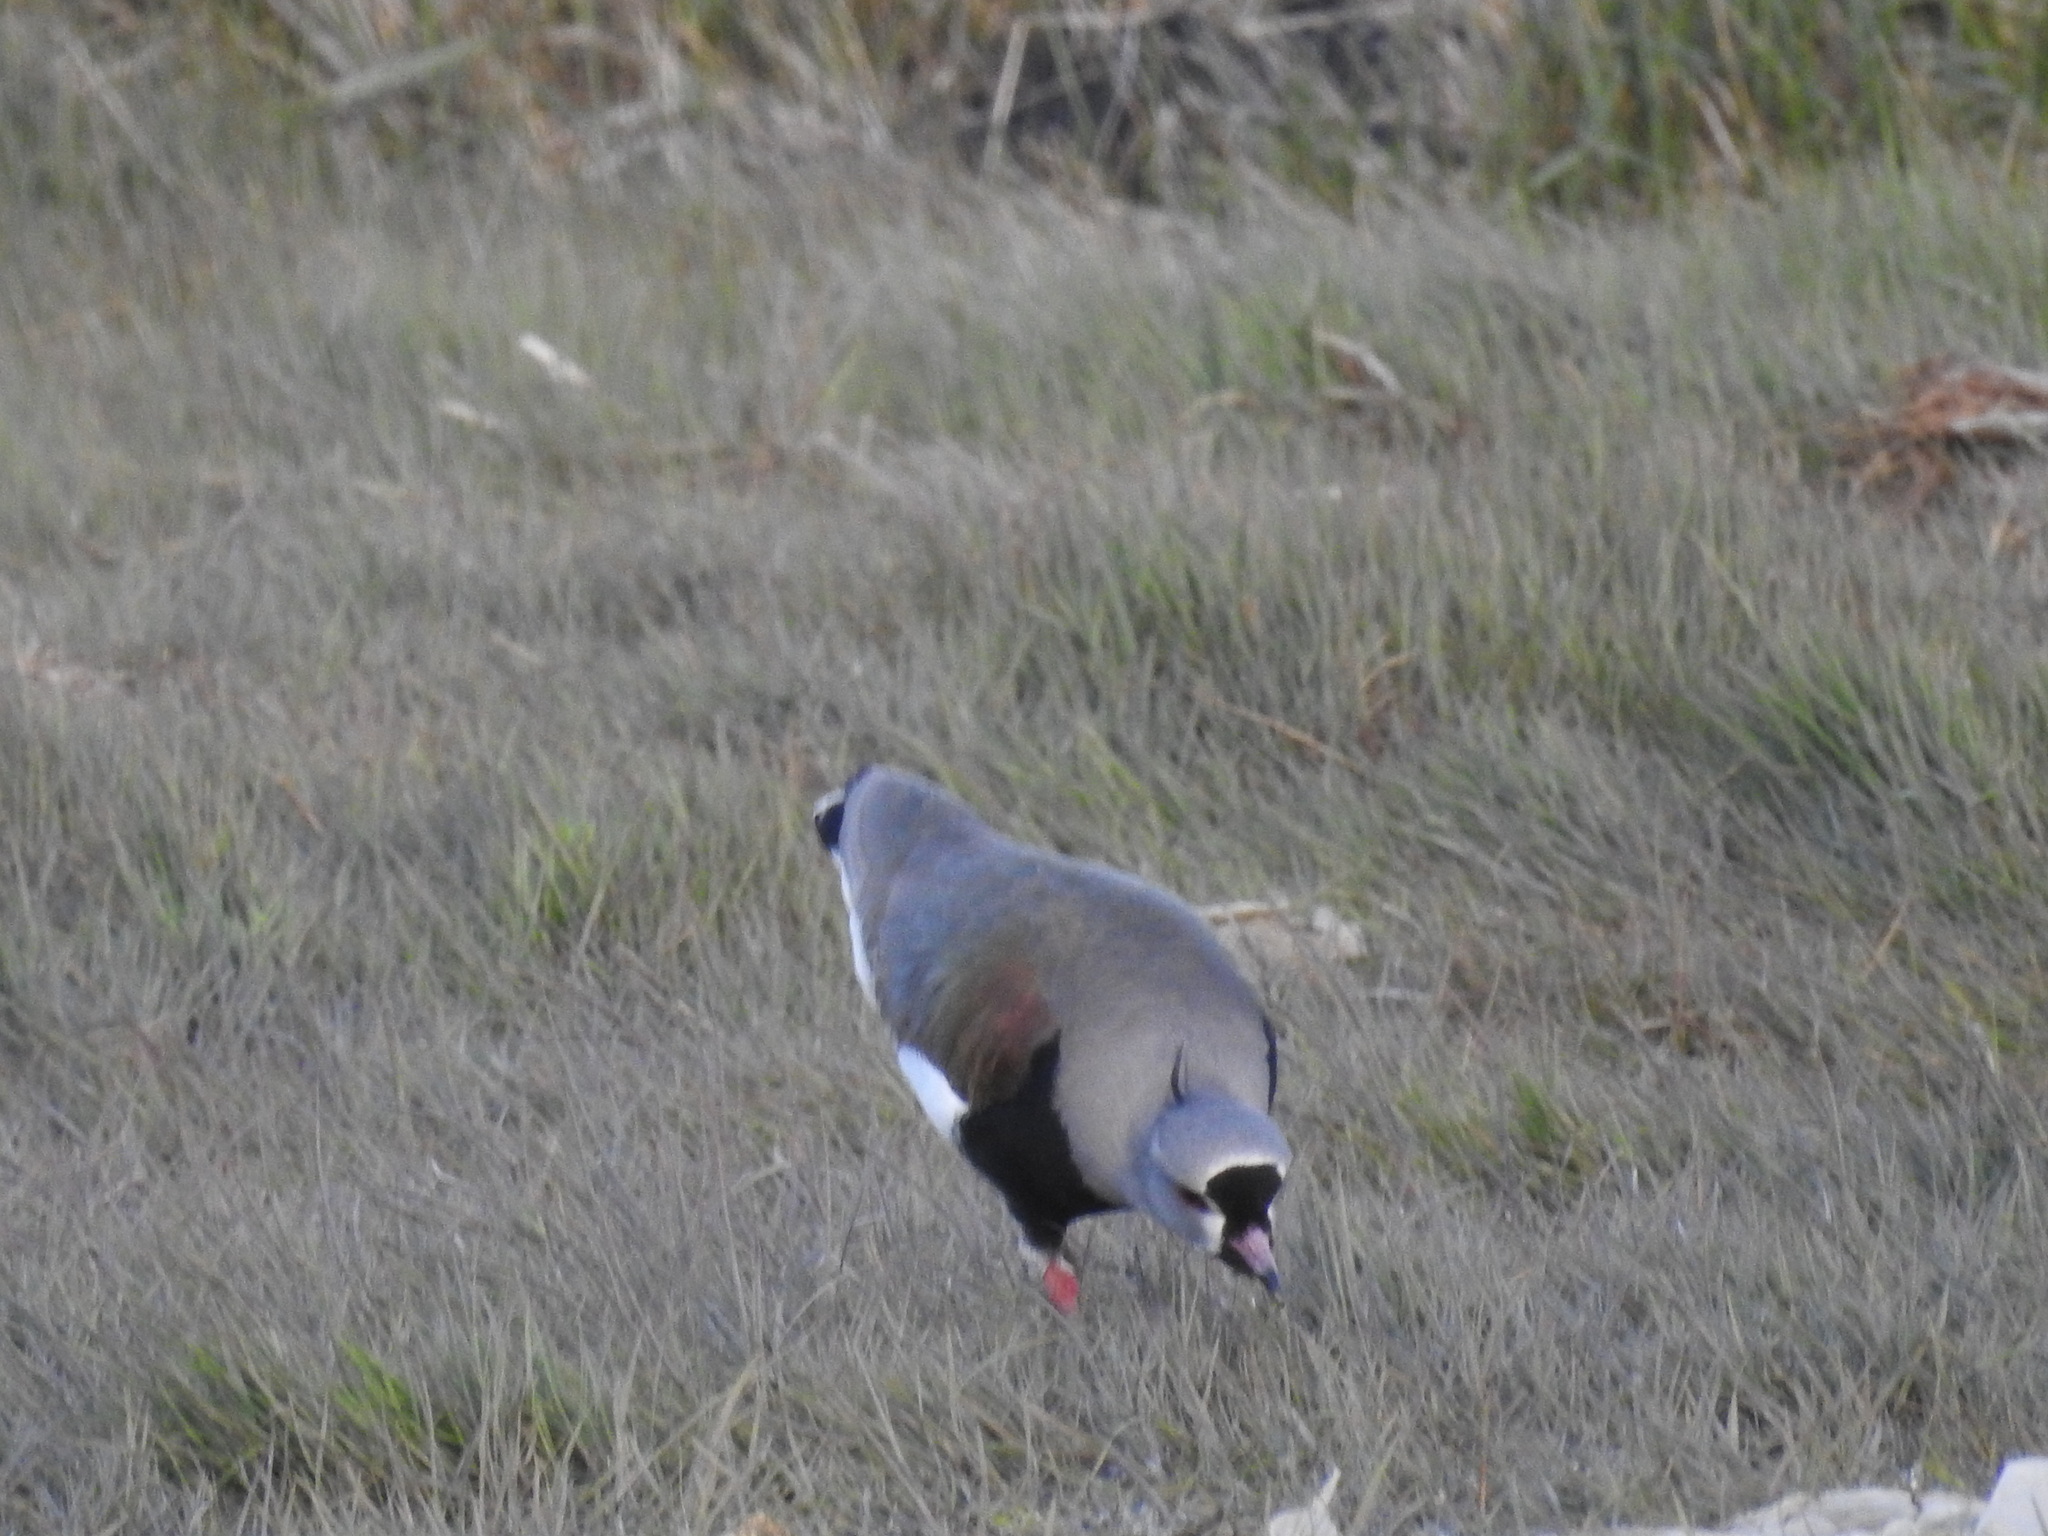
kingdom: Animalia
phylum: Chordata
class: Aves
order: Charadriiformes
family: Charadriidae
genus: Vanellus
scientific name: Vanellus chilensis
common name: Southern lapwing
